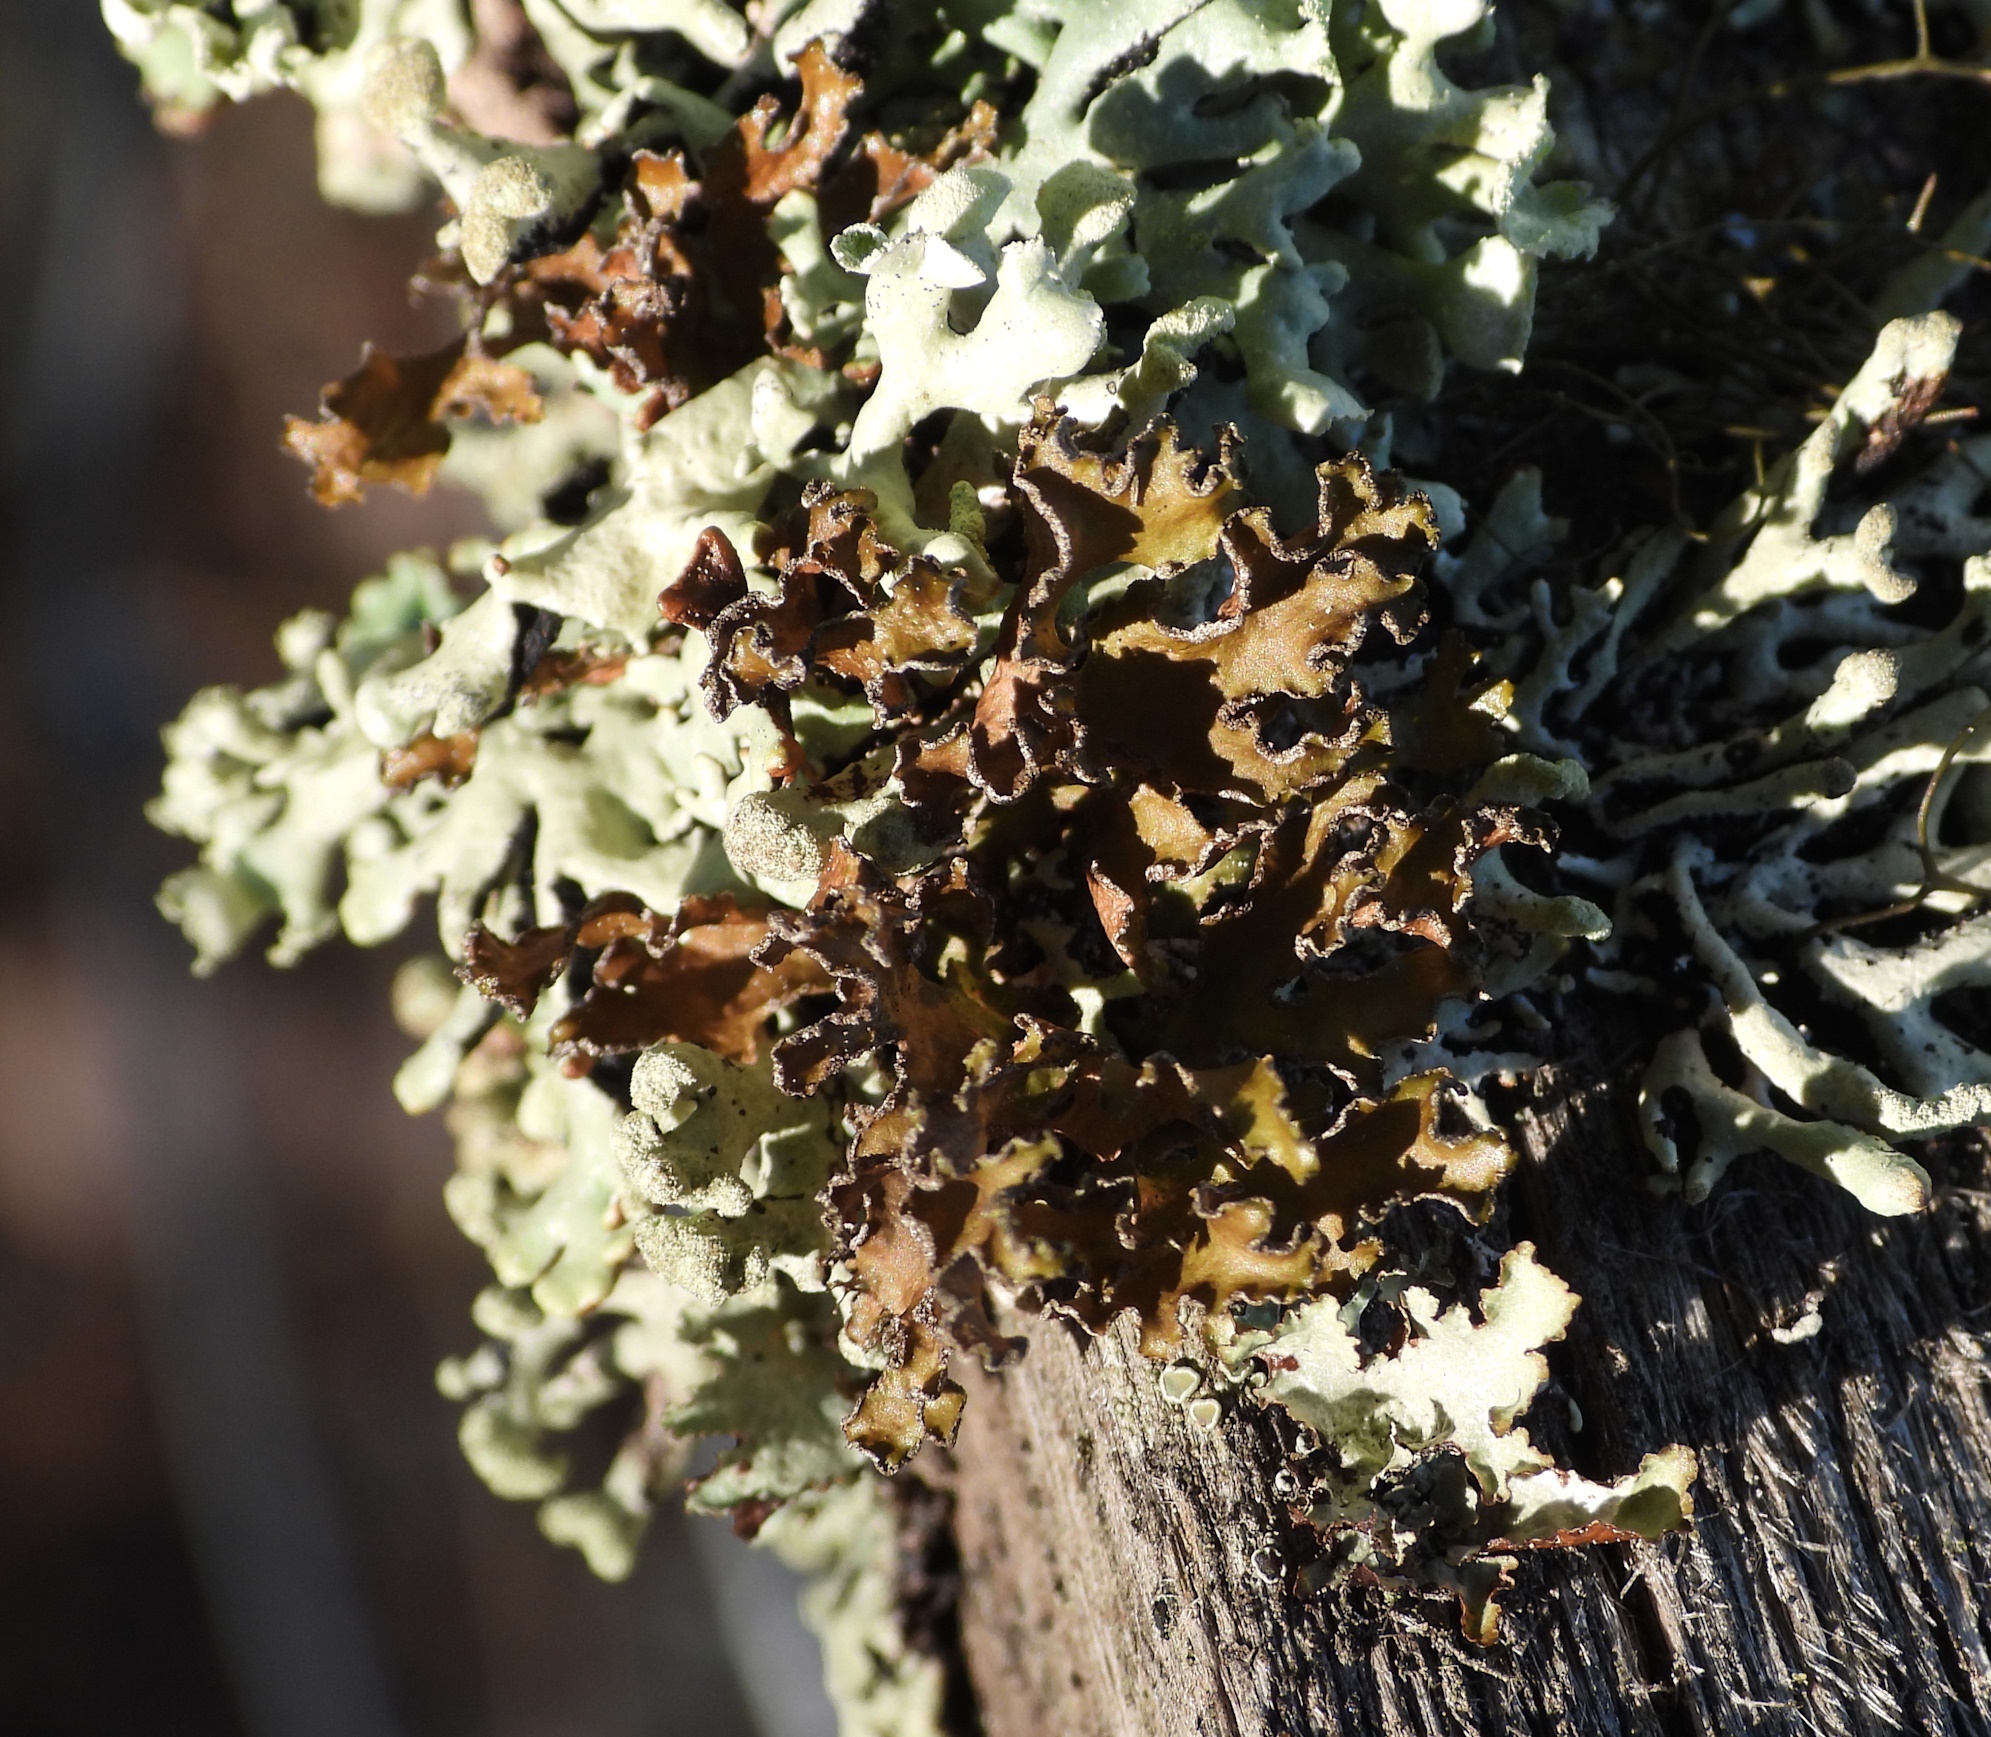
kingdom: Fungi
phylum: Ascomycota
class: Lecanoromycetes
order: Lecanorales
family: Parmeliaceae
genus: Nephromopsis
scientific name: Nephromopsis chlorophylla
